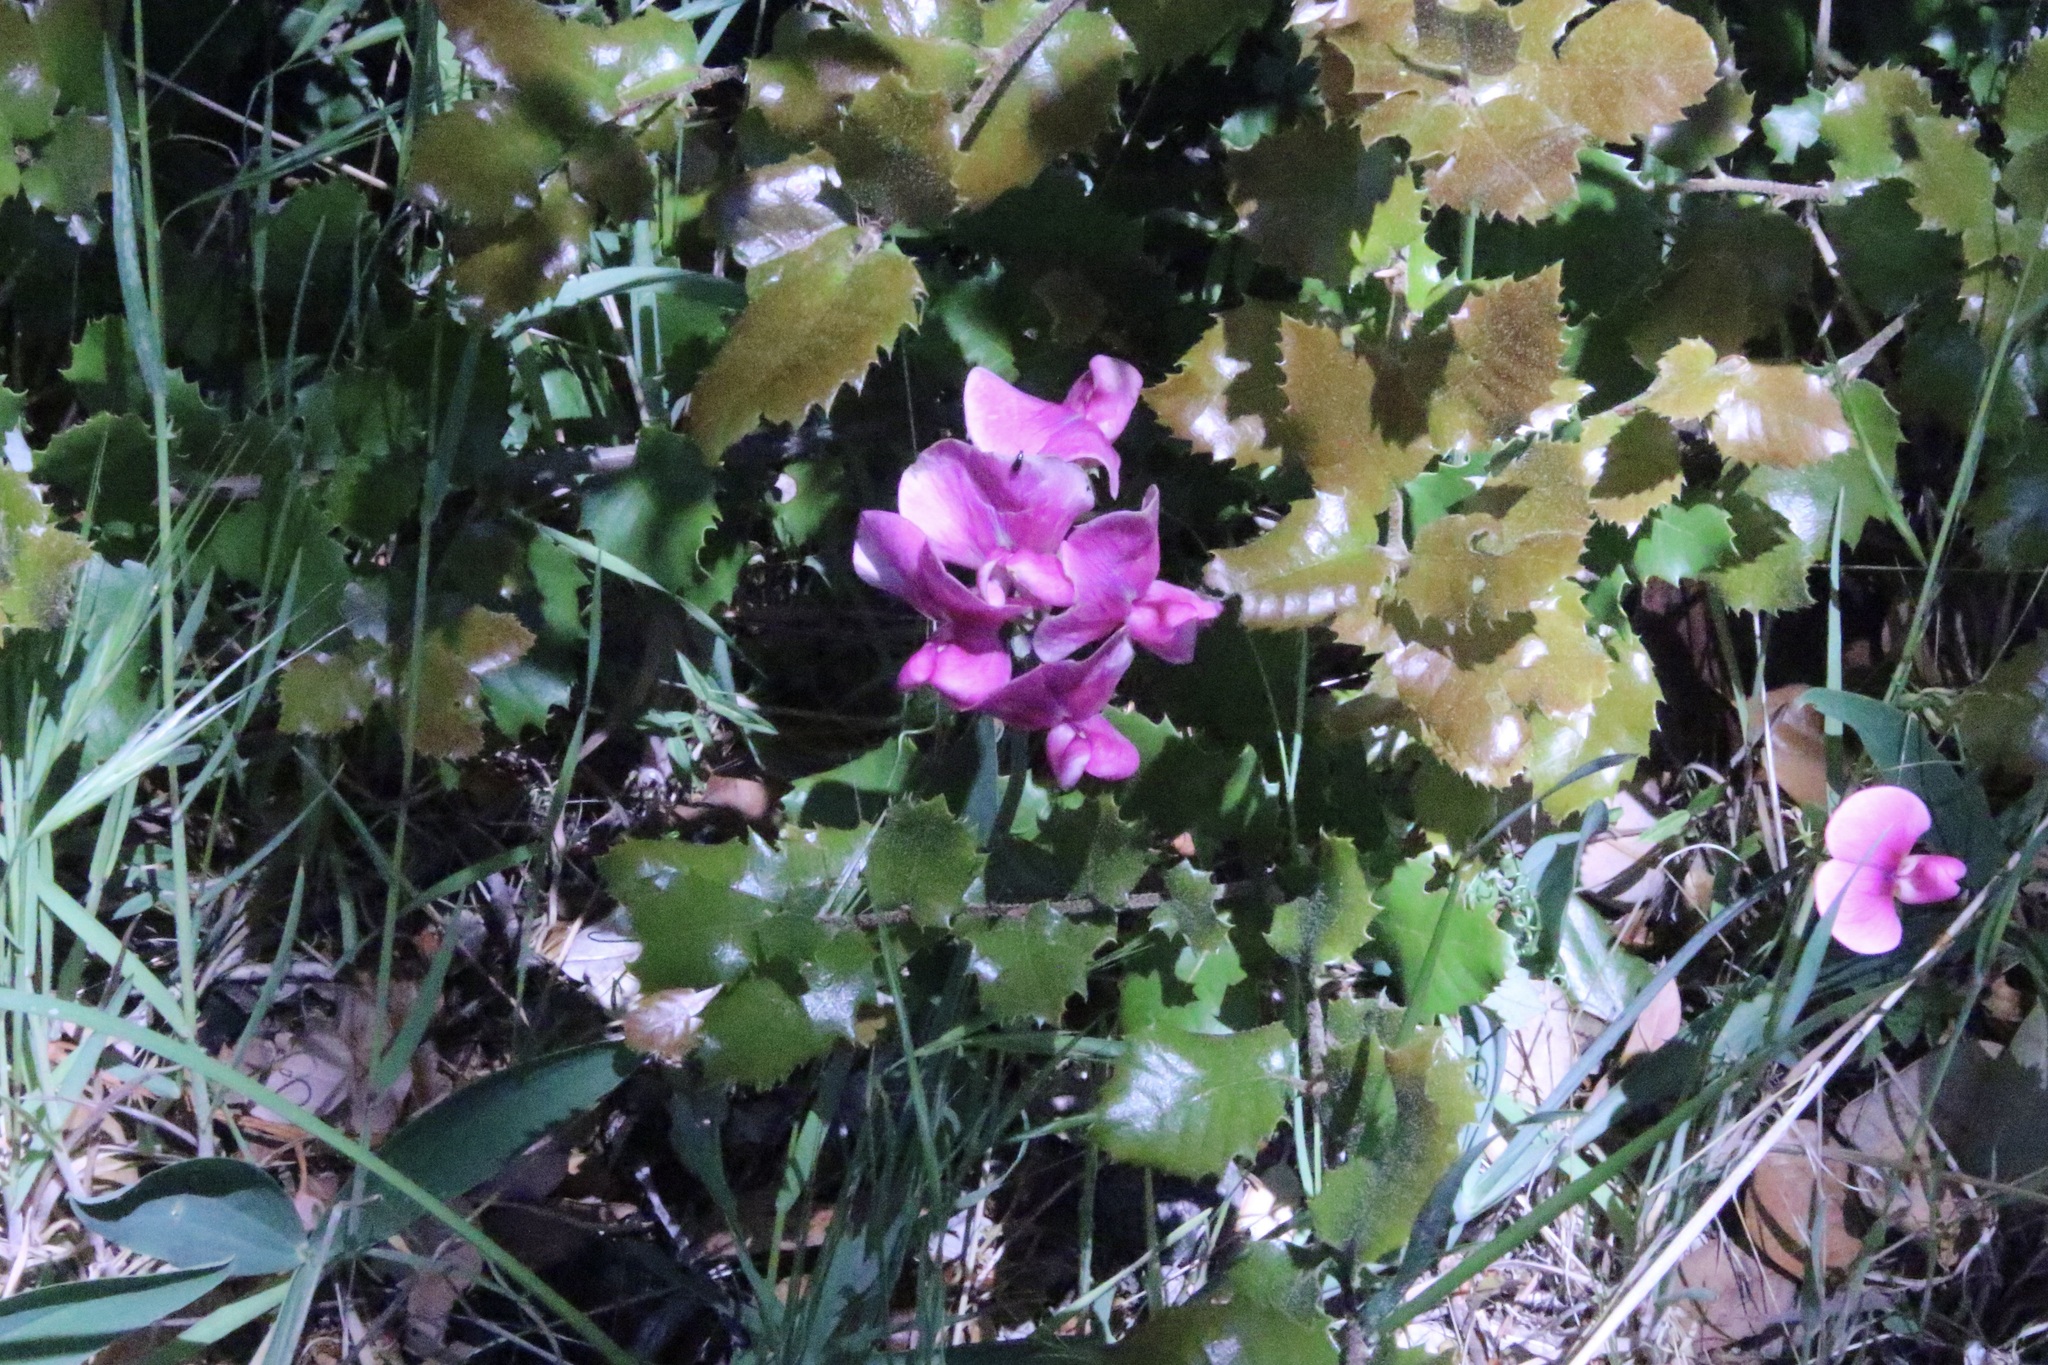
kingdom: Plantae
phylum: Tracheophyta
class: Magnoliopsida
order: Fabales
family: Fabaceae
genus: Lathyrus
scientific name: Lathyrus latifolius
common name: Perennial pea
